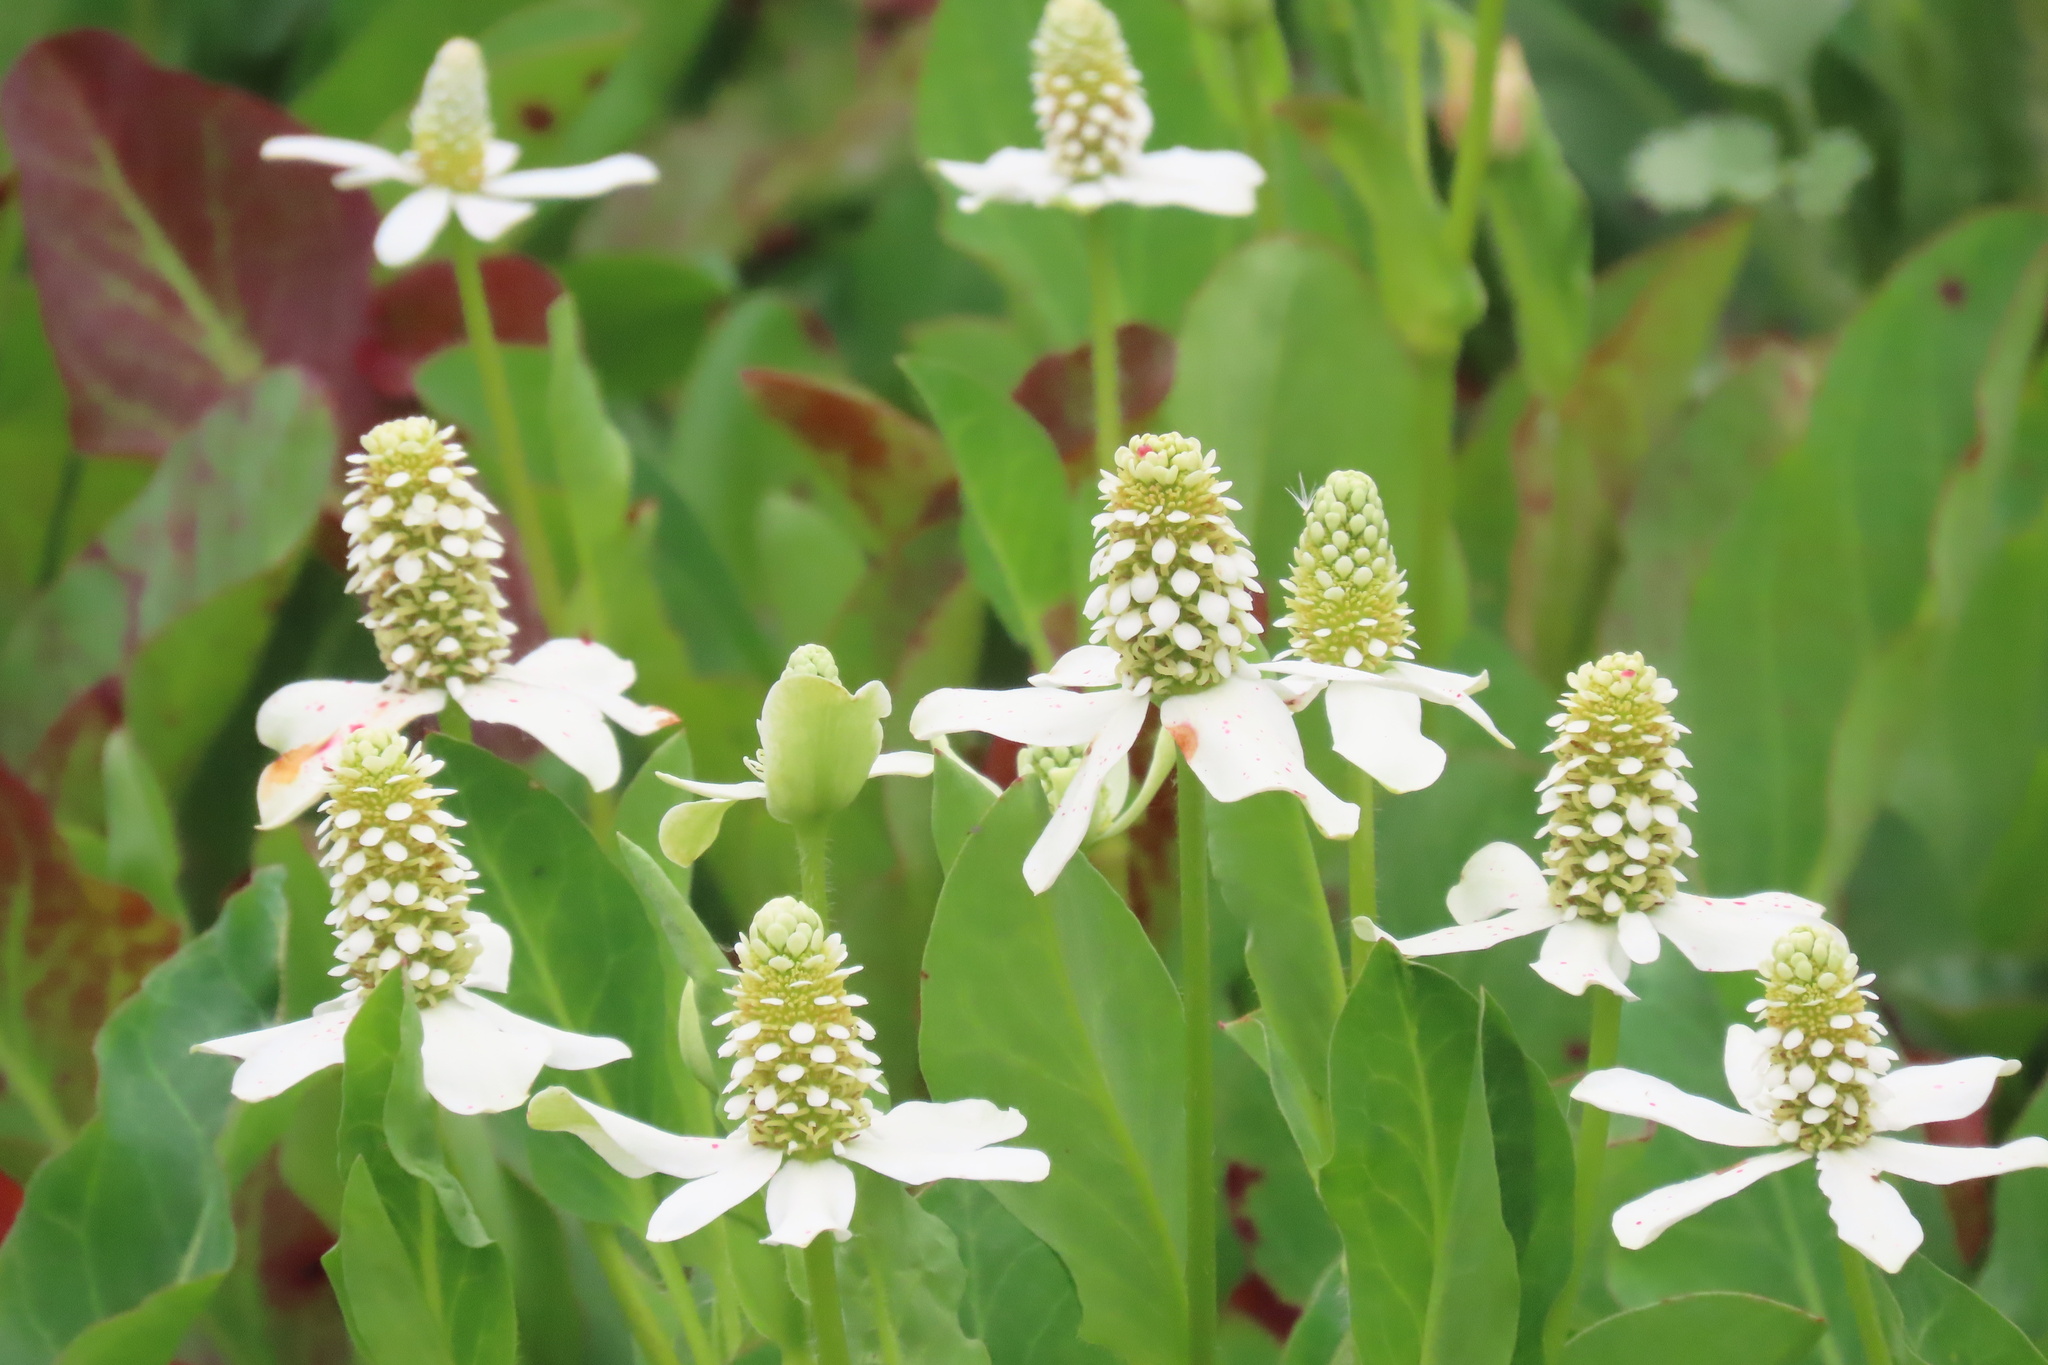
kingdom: Plantae
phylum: Tracheophyta
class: Magnoliopsida
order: Piperales
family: Saururaceae
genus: Anemopsis
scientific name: Anemopsis californica
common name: Apache-beads
